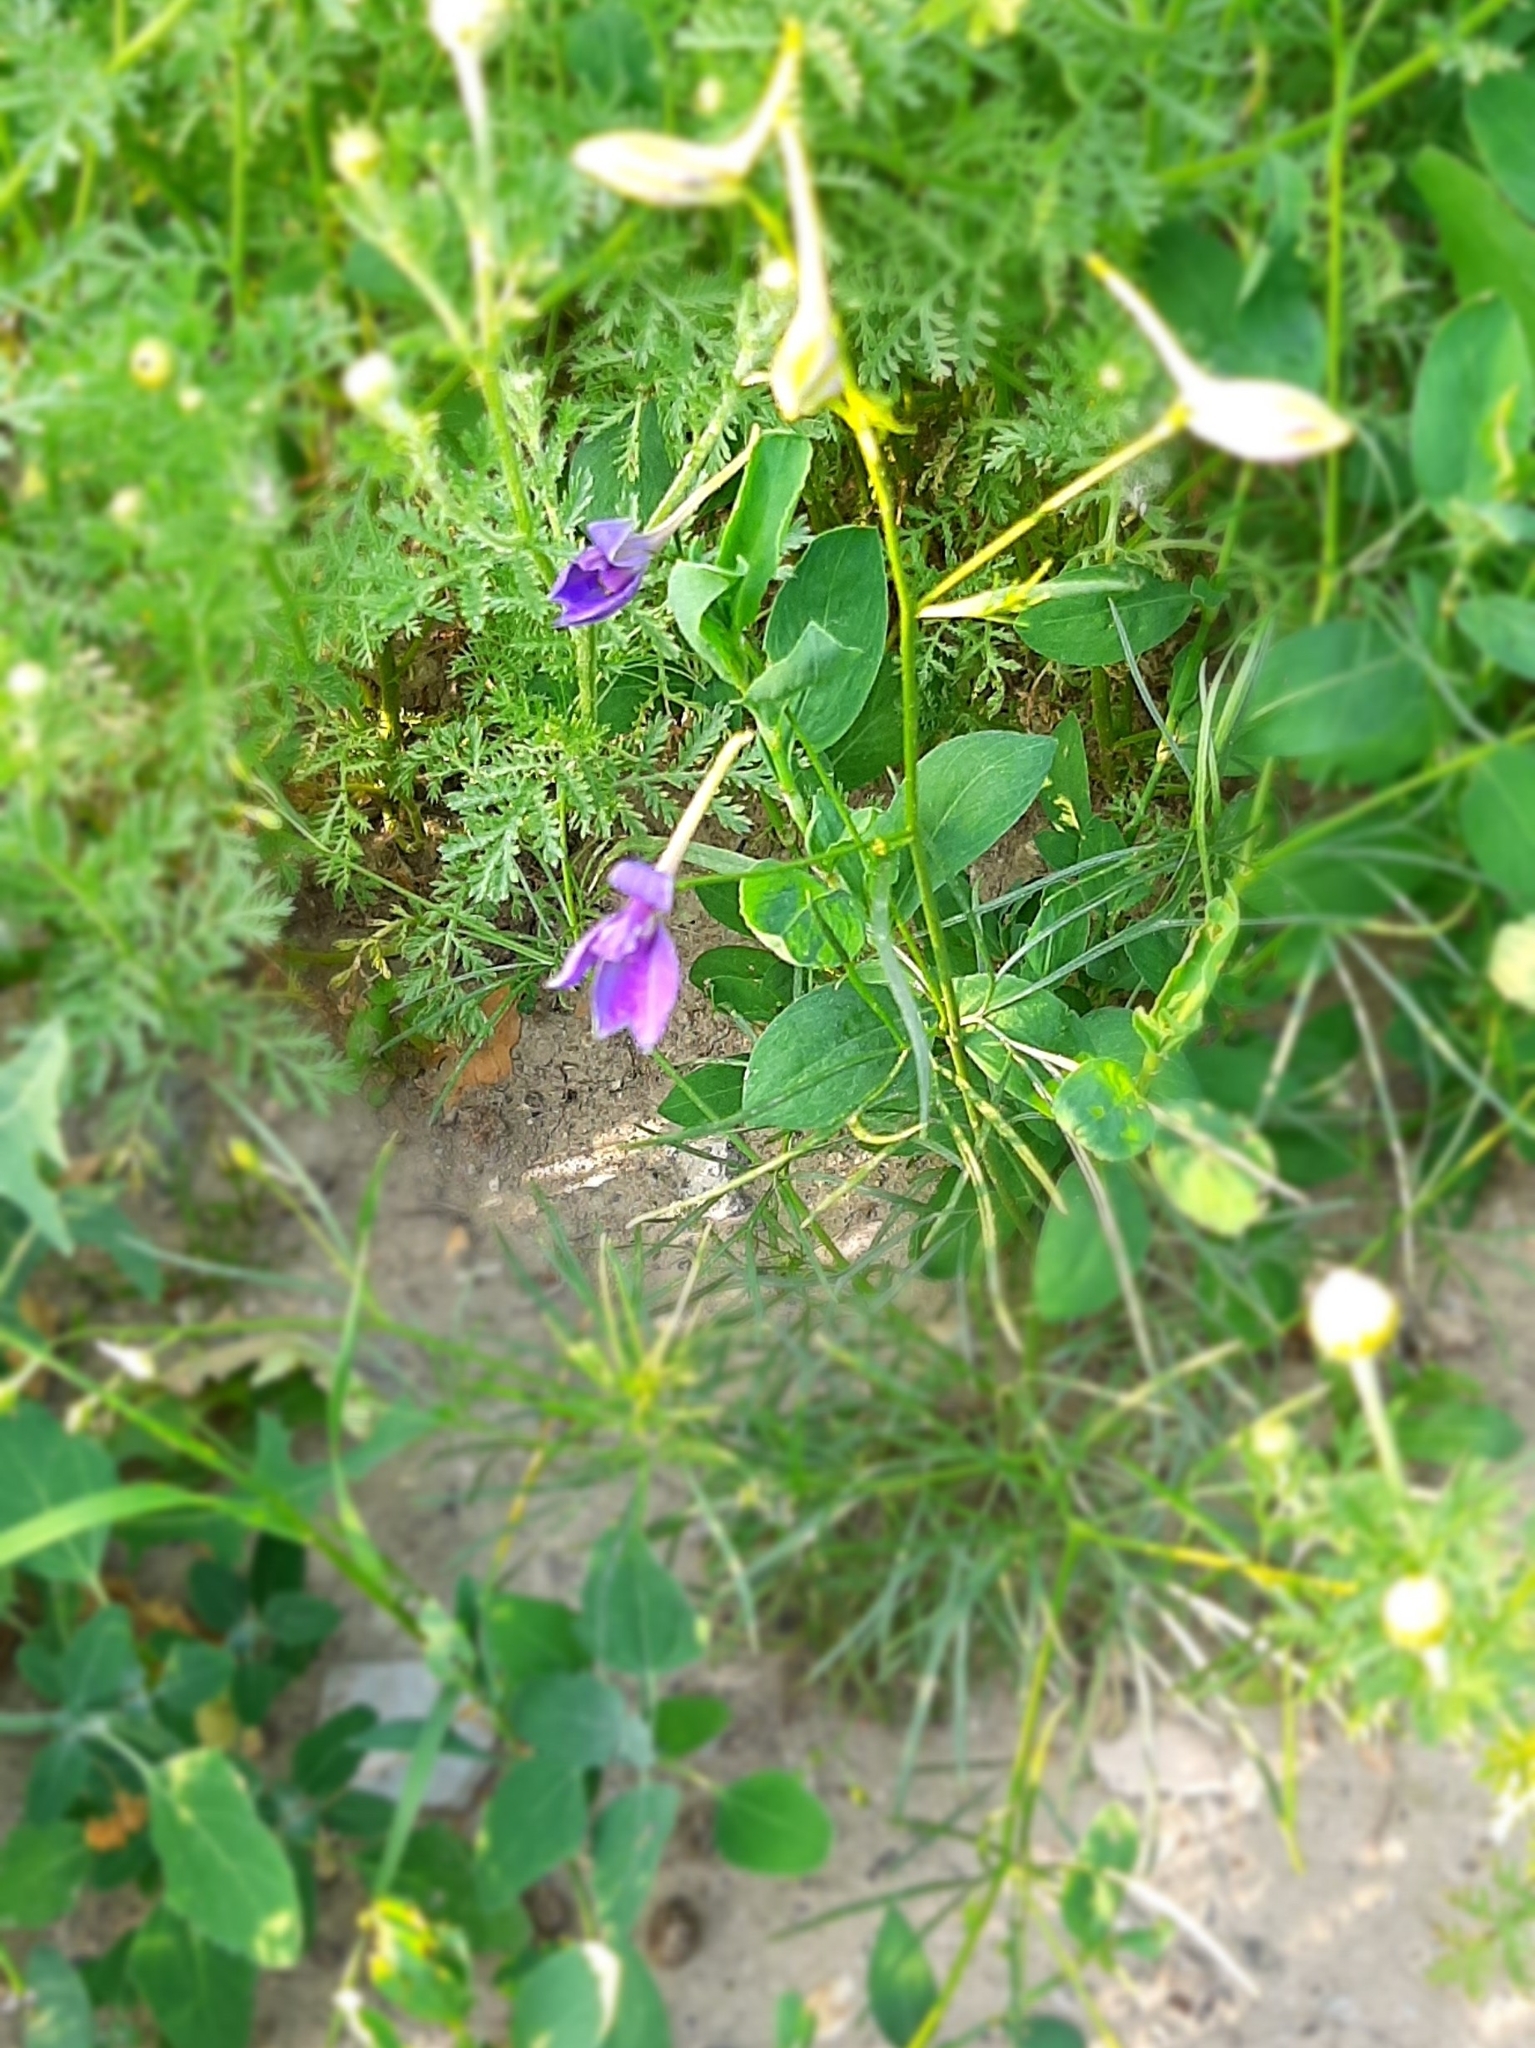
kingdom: Plantae
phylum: Tracheophyta
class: Magnoliopsida
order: Ranunculales
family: Ranunculaceae
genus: Delphinium
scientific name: Delphinium consolida
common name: Branching larkspur
